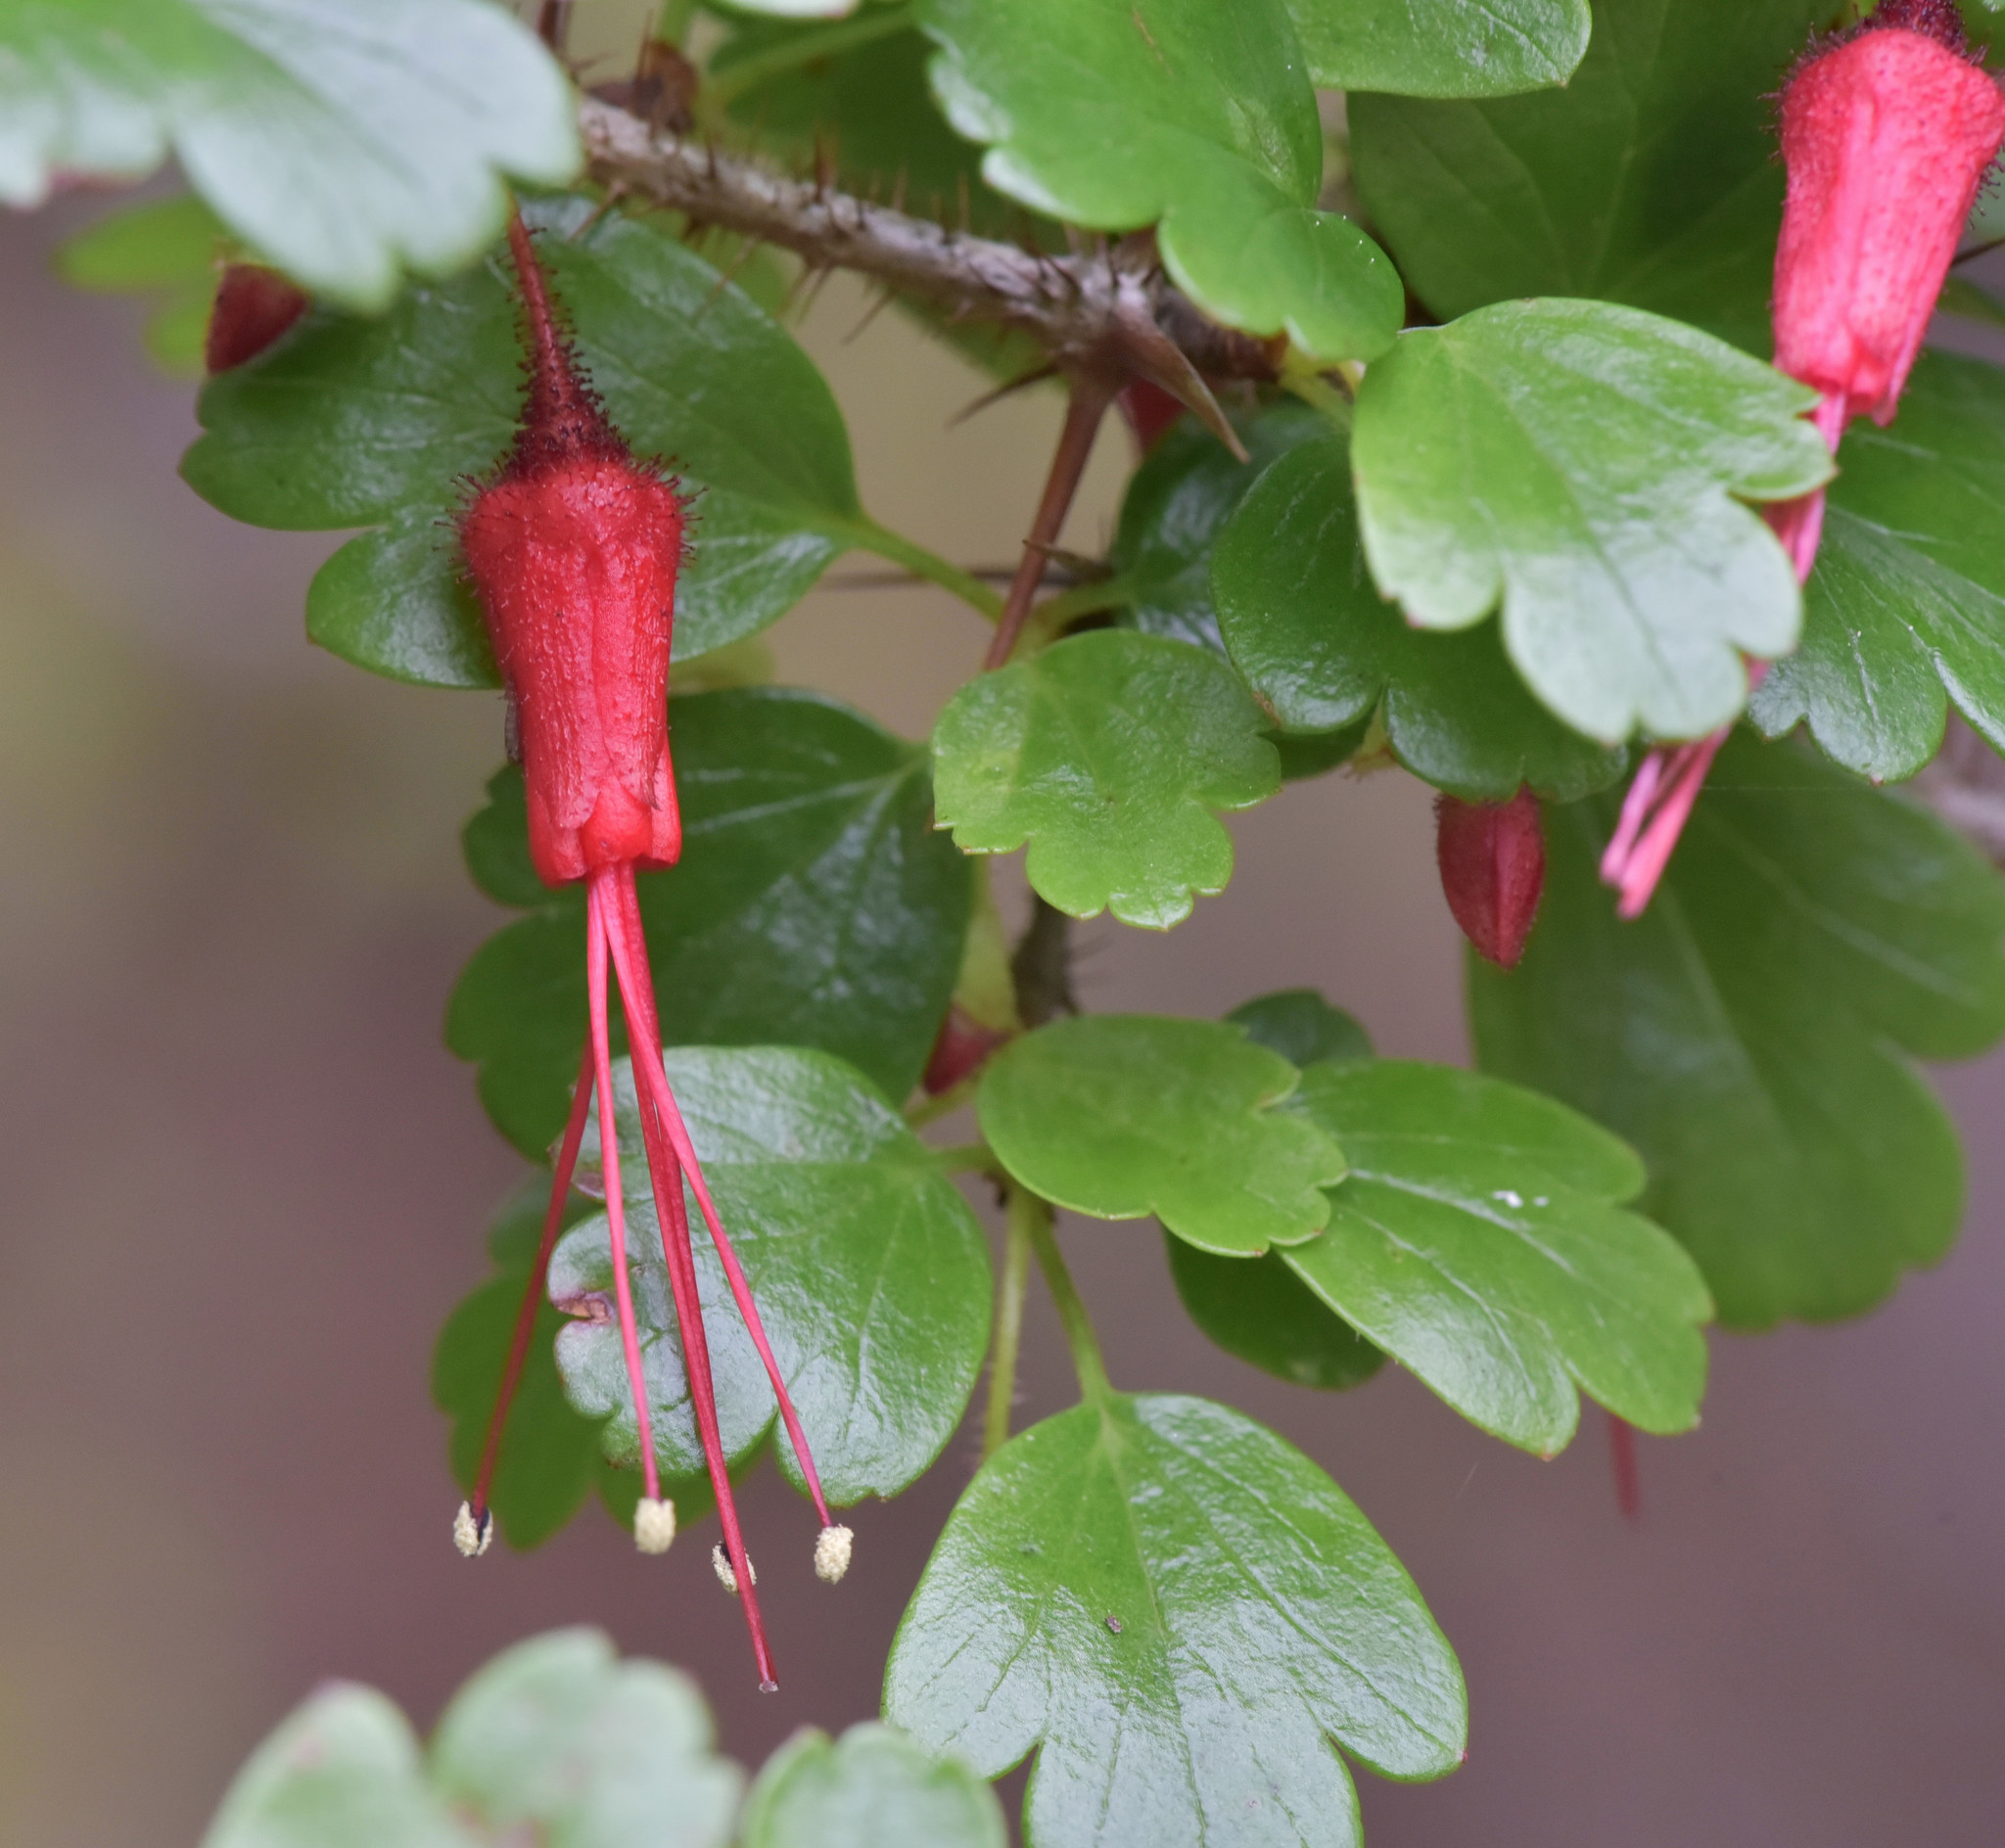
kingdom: Plantae
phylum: Tracheophyta
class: Magnoliopsida
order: Saxifragales
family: Grossulariaceae
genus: Ribes
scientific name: Ribes speciosum
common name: Fuchsia-flower gooseberry
